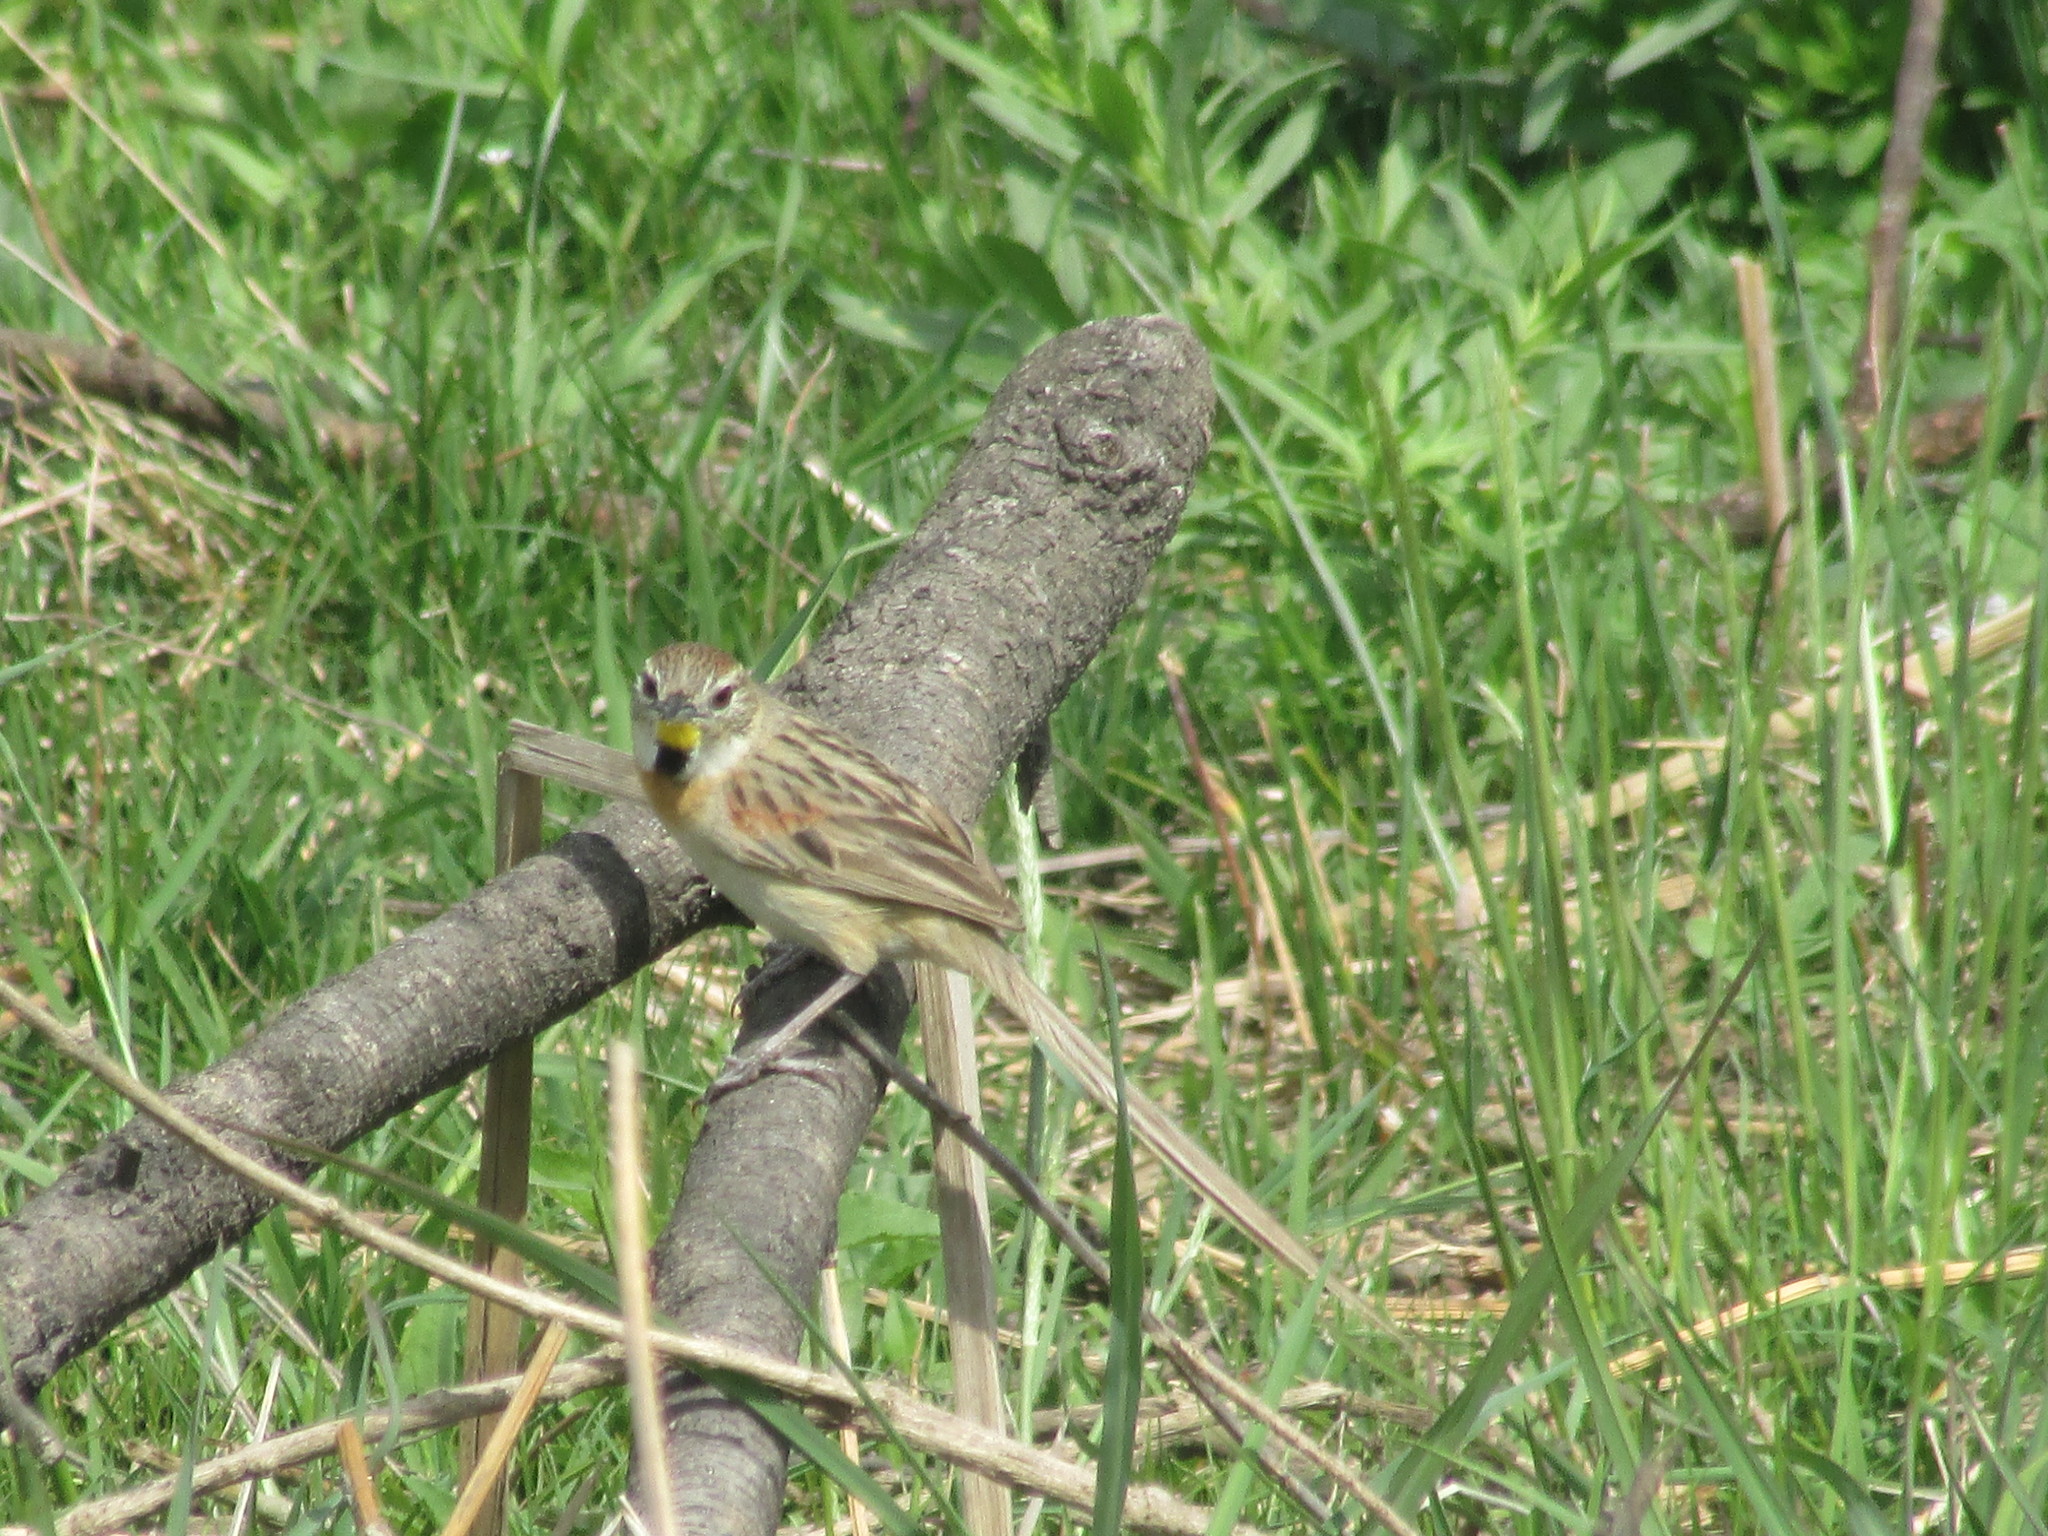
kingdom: Animalia
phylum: Chordata
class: Aves
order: Passeriformes
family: Furnariidae
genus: Schoeniophylax
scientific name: Schoeniophylax phryganophilus
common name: Chotoy spinetail
